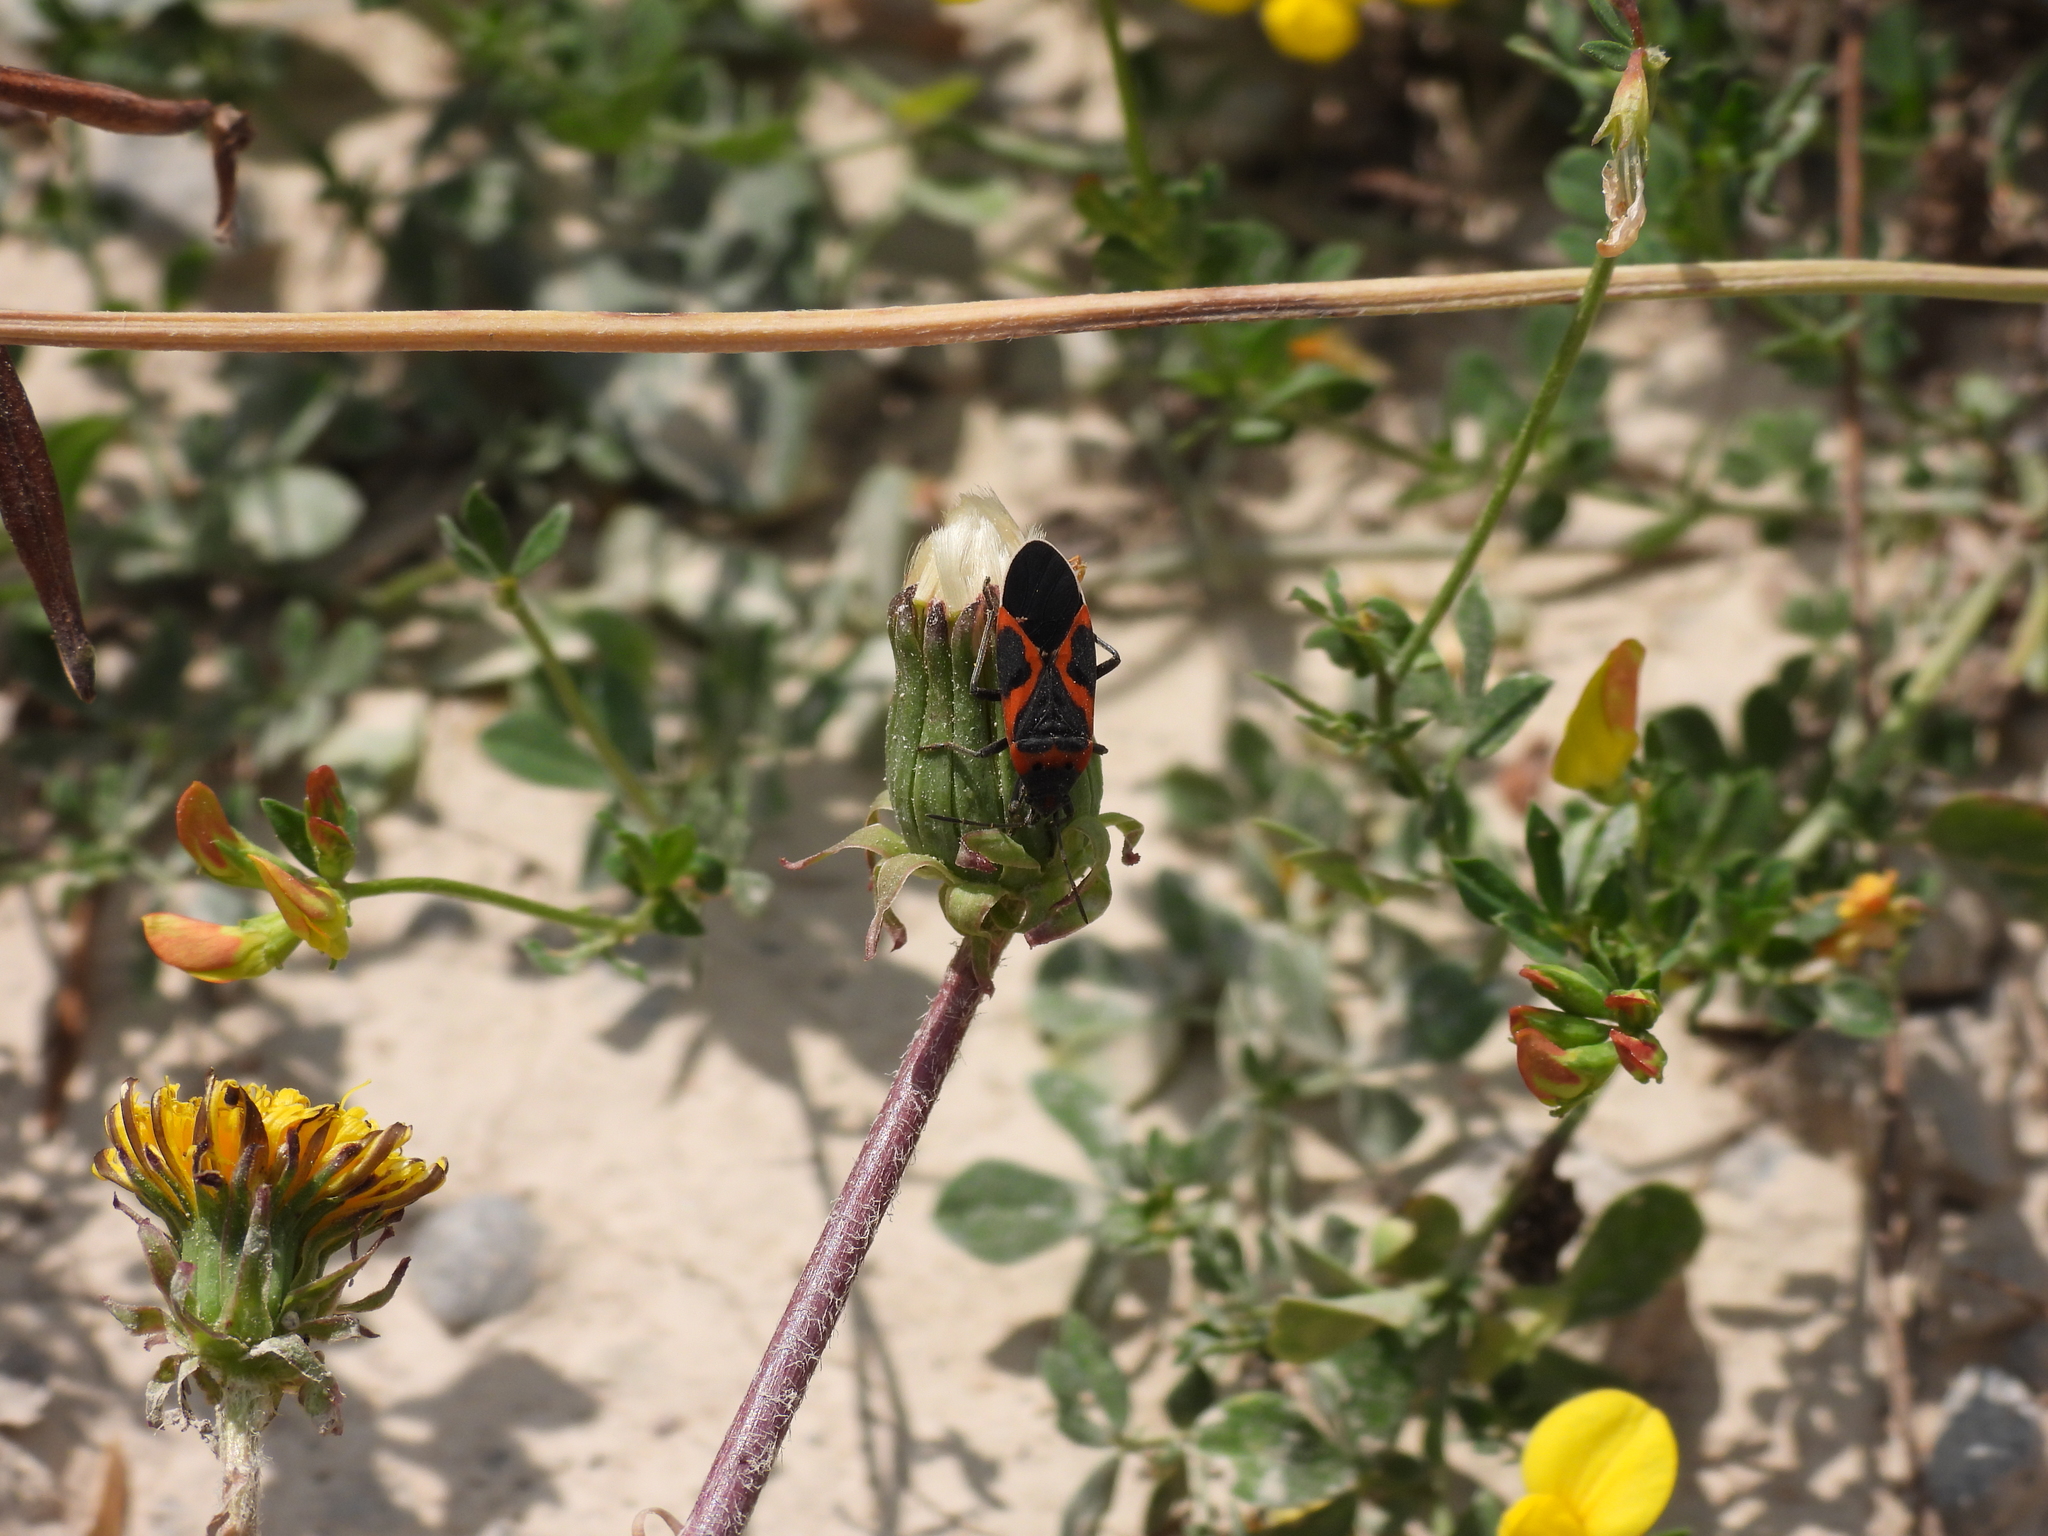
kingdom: Animalia
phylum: Arthropoda
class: Insecta
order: Hemiptera
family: Lygaeidae
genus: Lygaeus
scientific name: Lygaeus kalmii
